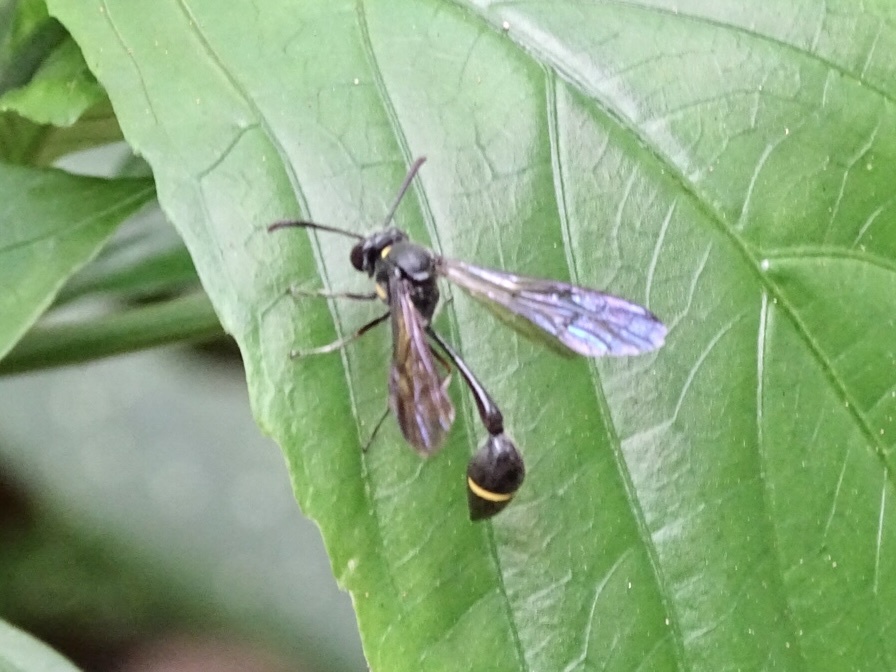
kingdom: Animalia
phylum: Arthropoda
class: Insecta
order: Hymenoptera
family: Vespidae
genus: Eustenogaster
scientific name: Eustenogaster nigra
